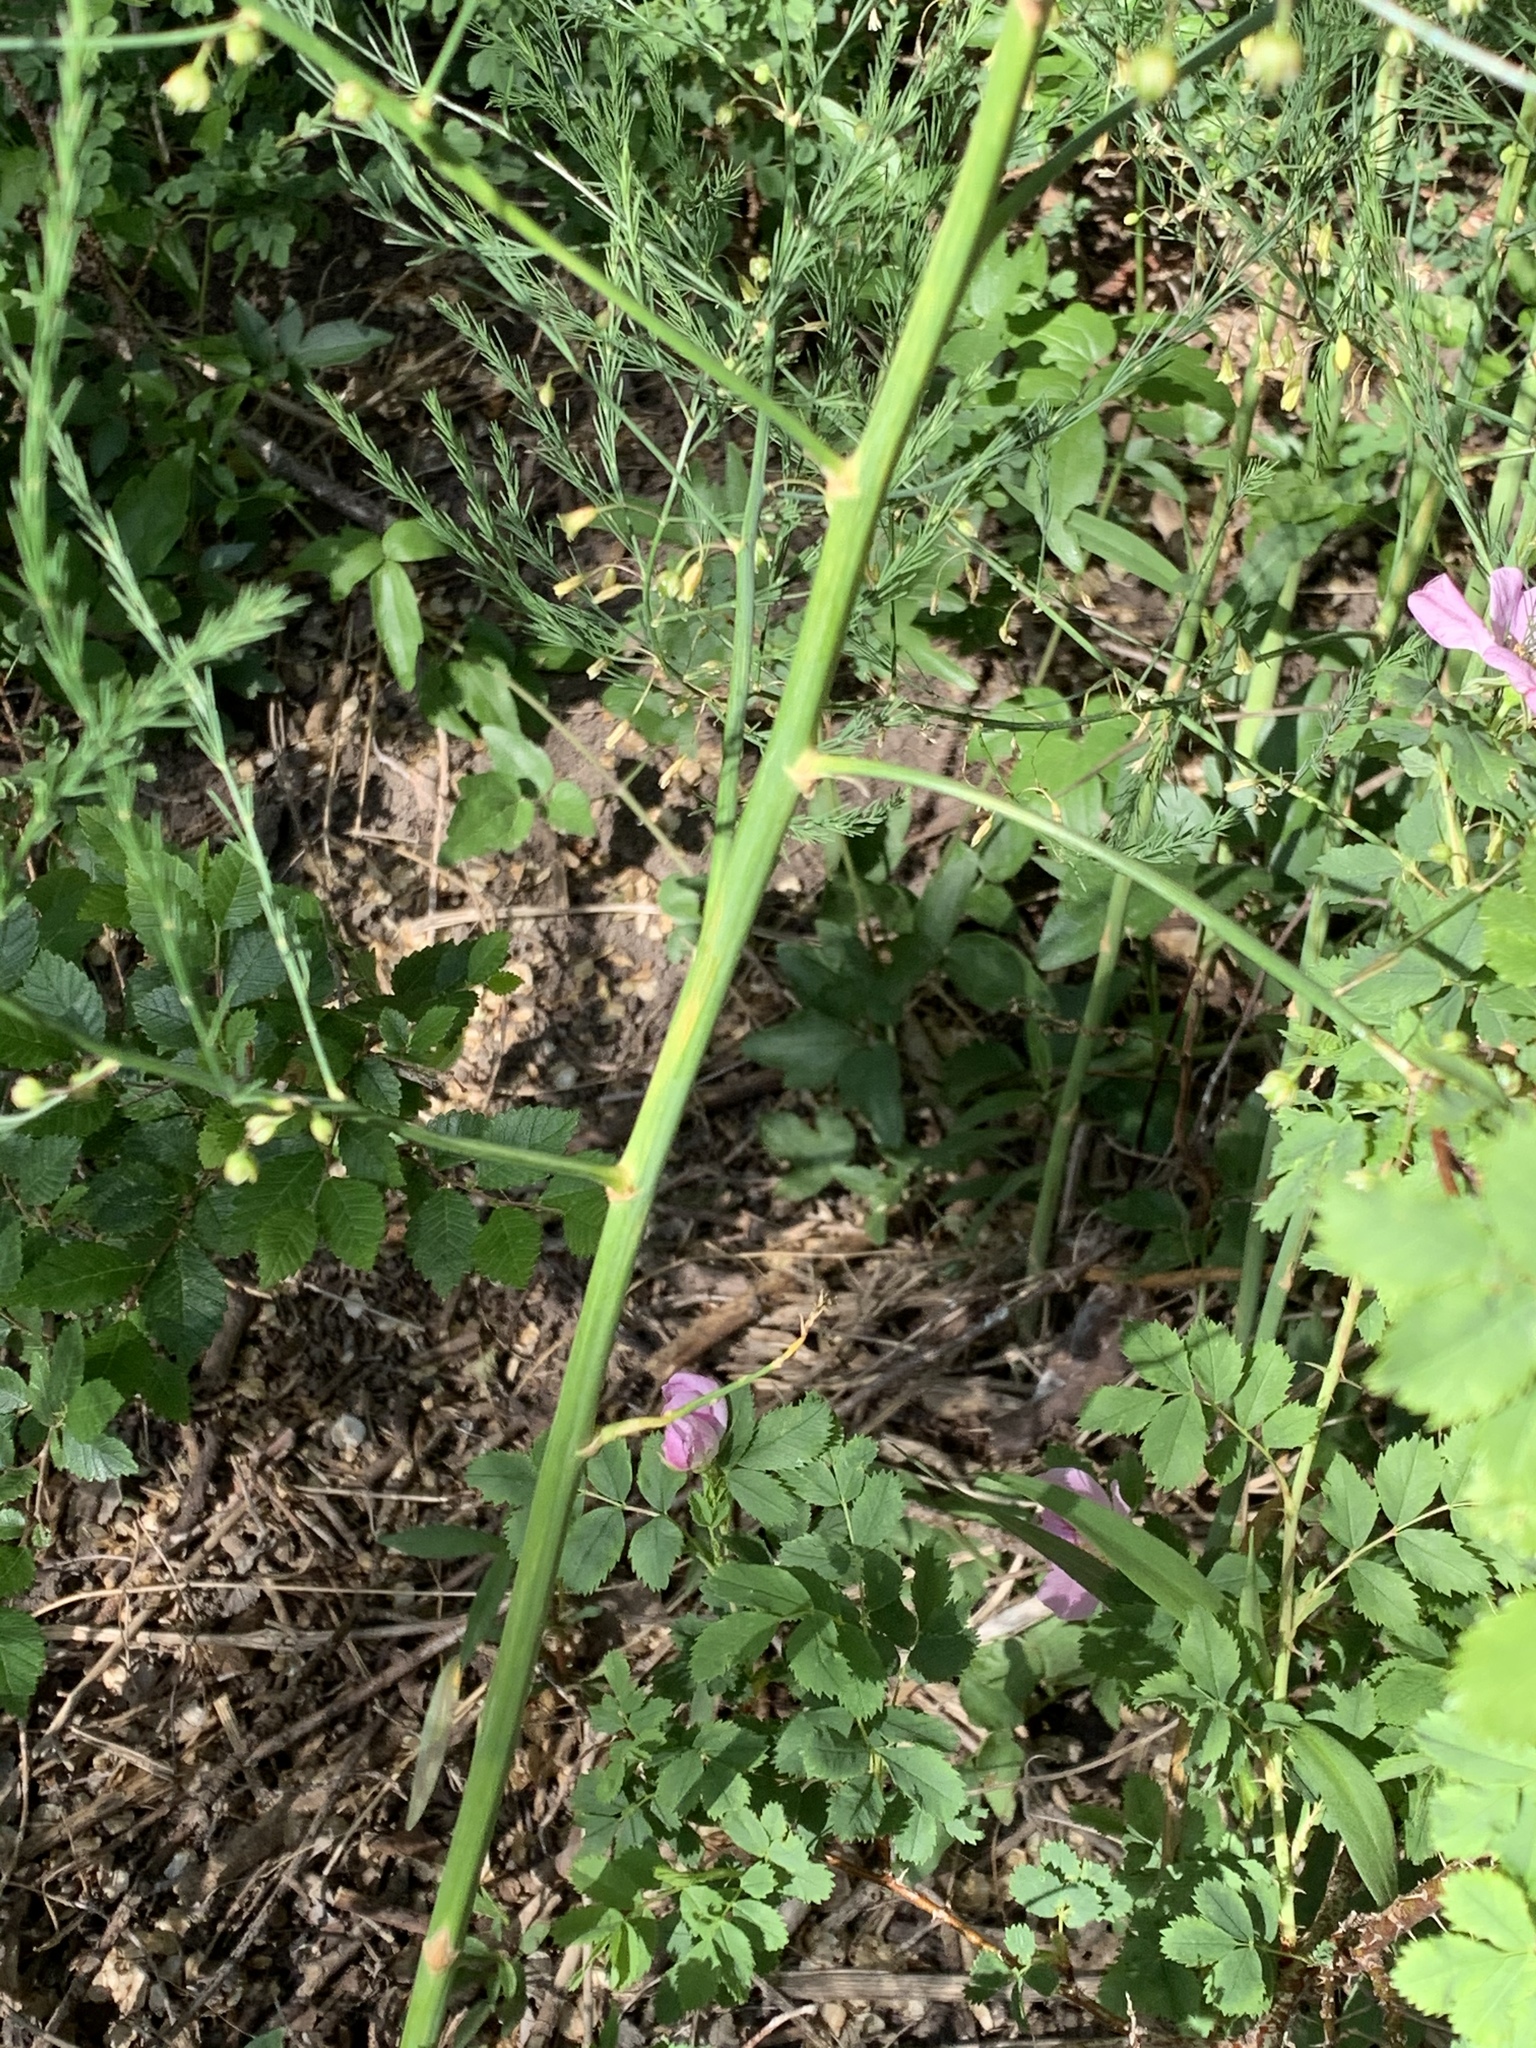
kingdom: Plantae
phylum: Tracheophyta
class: Liliopsida
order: Asparagales
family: Asparagaceae
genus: Asparagus
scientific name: Asparagus officinalis
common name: Garden asparagus
